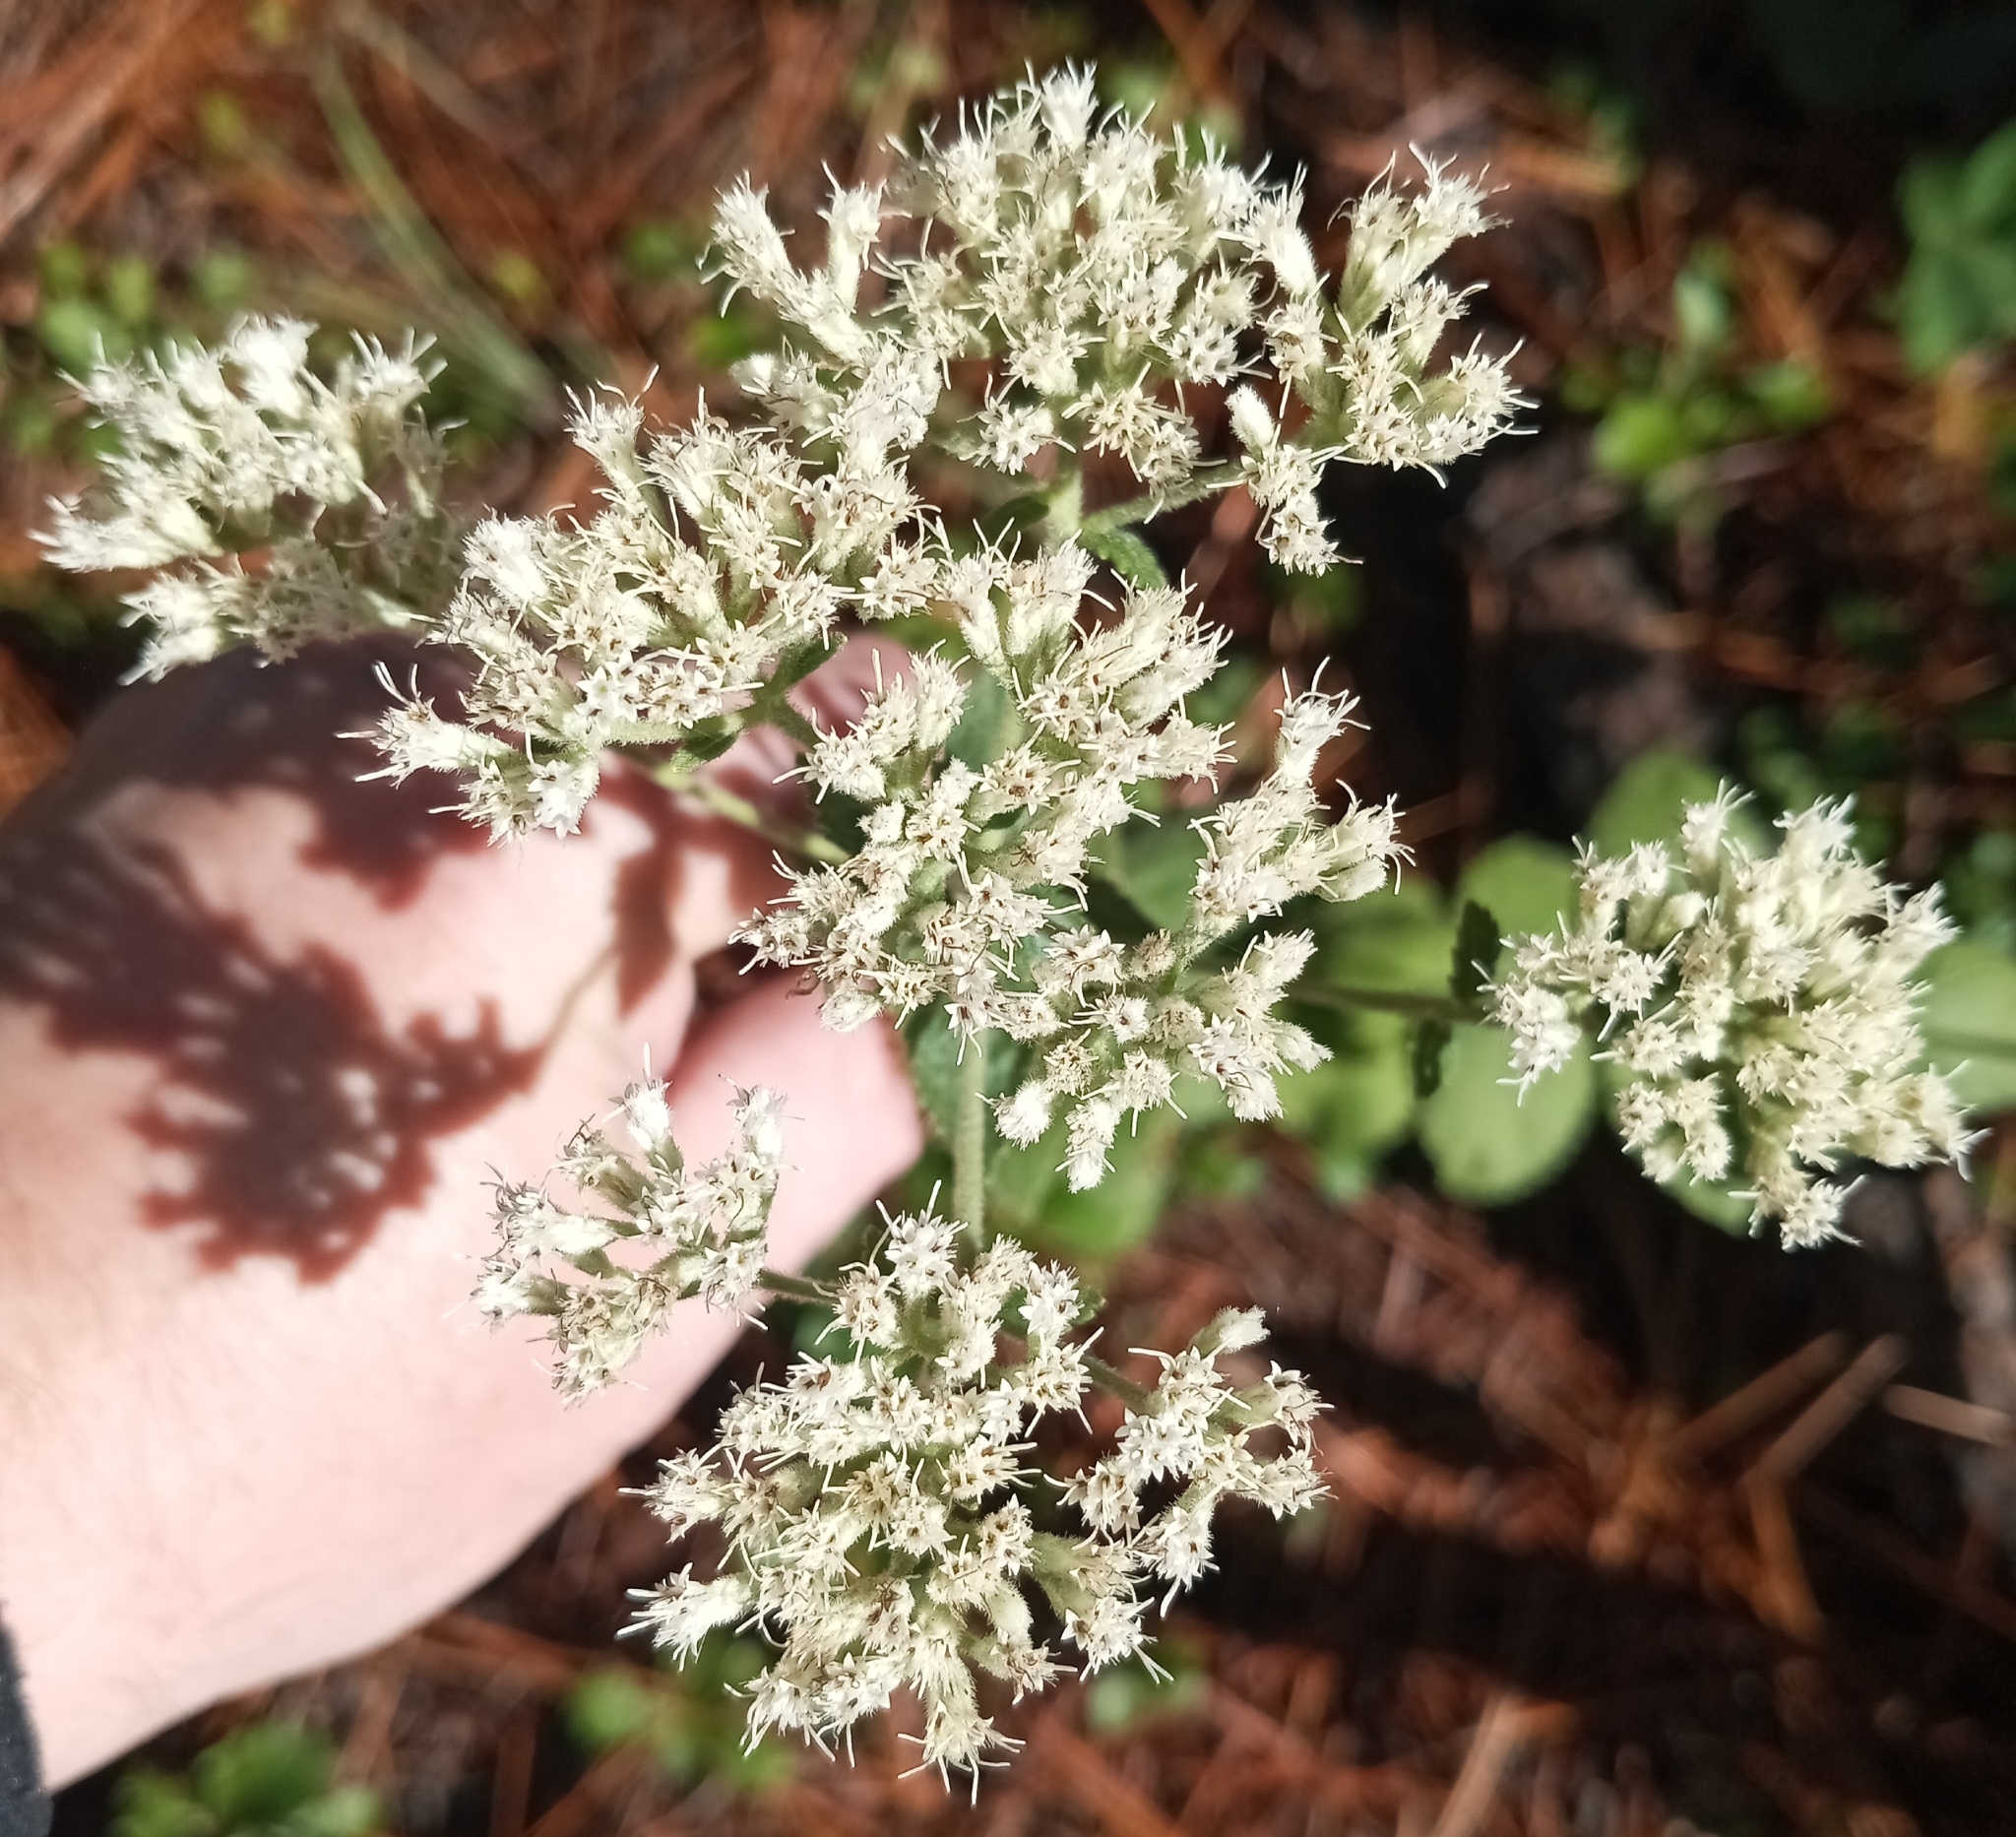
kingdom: Plantae
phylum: Tracheophyta
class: Magnoliopsida
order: Asterales
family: Asteraceae
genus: Eupatorium
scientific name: Eupatorium rotundifolium
